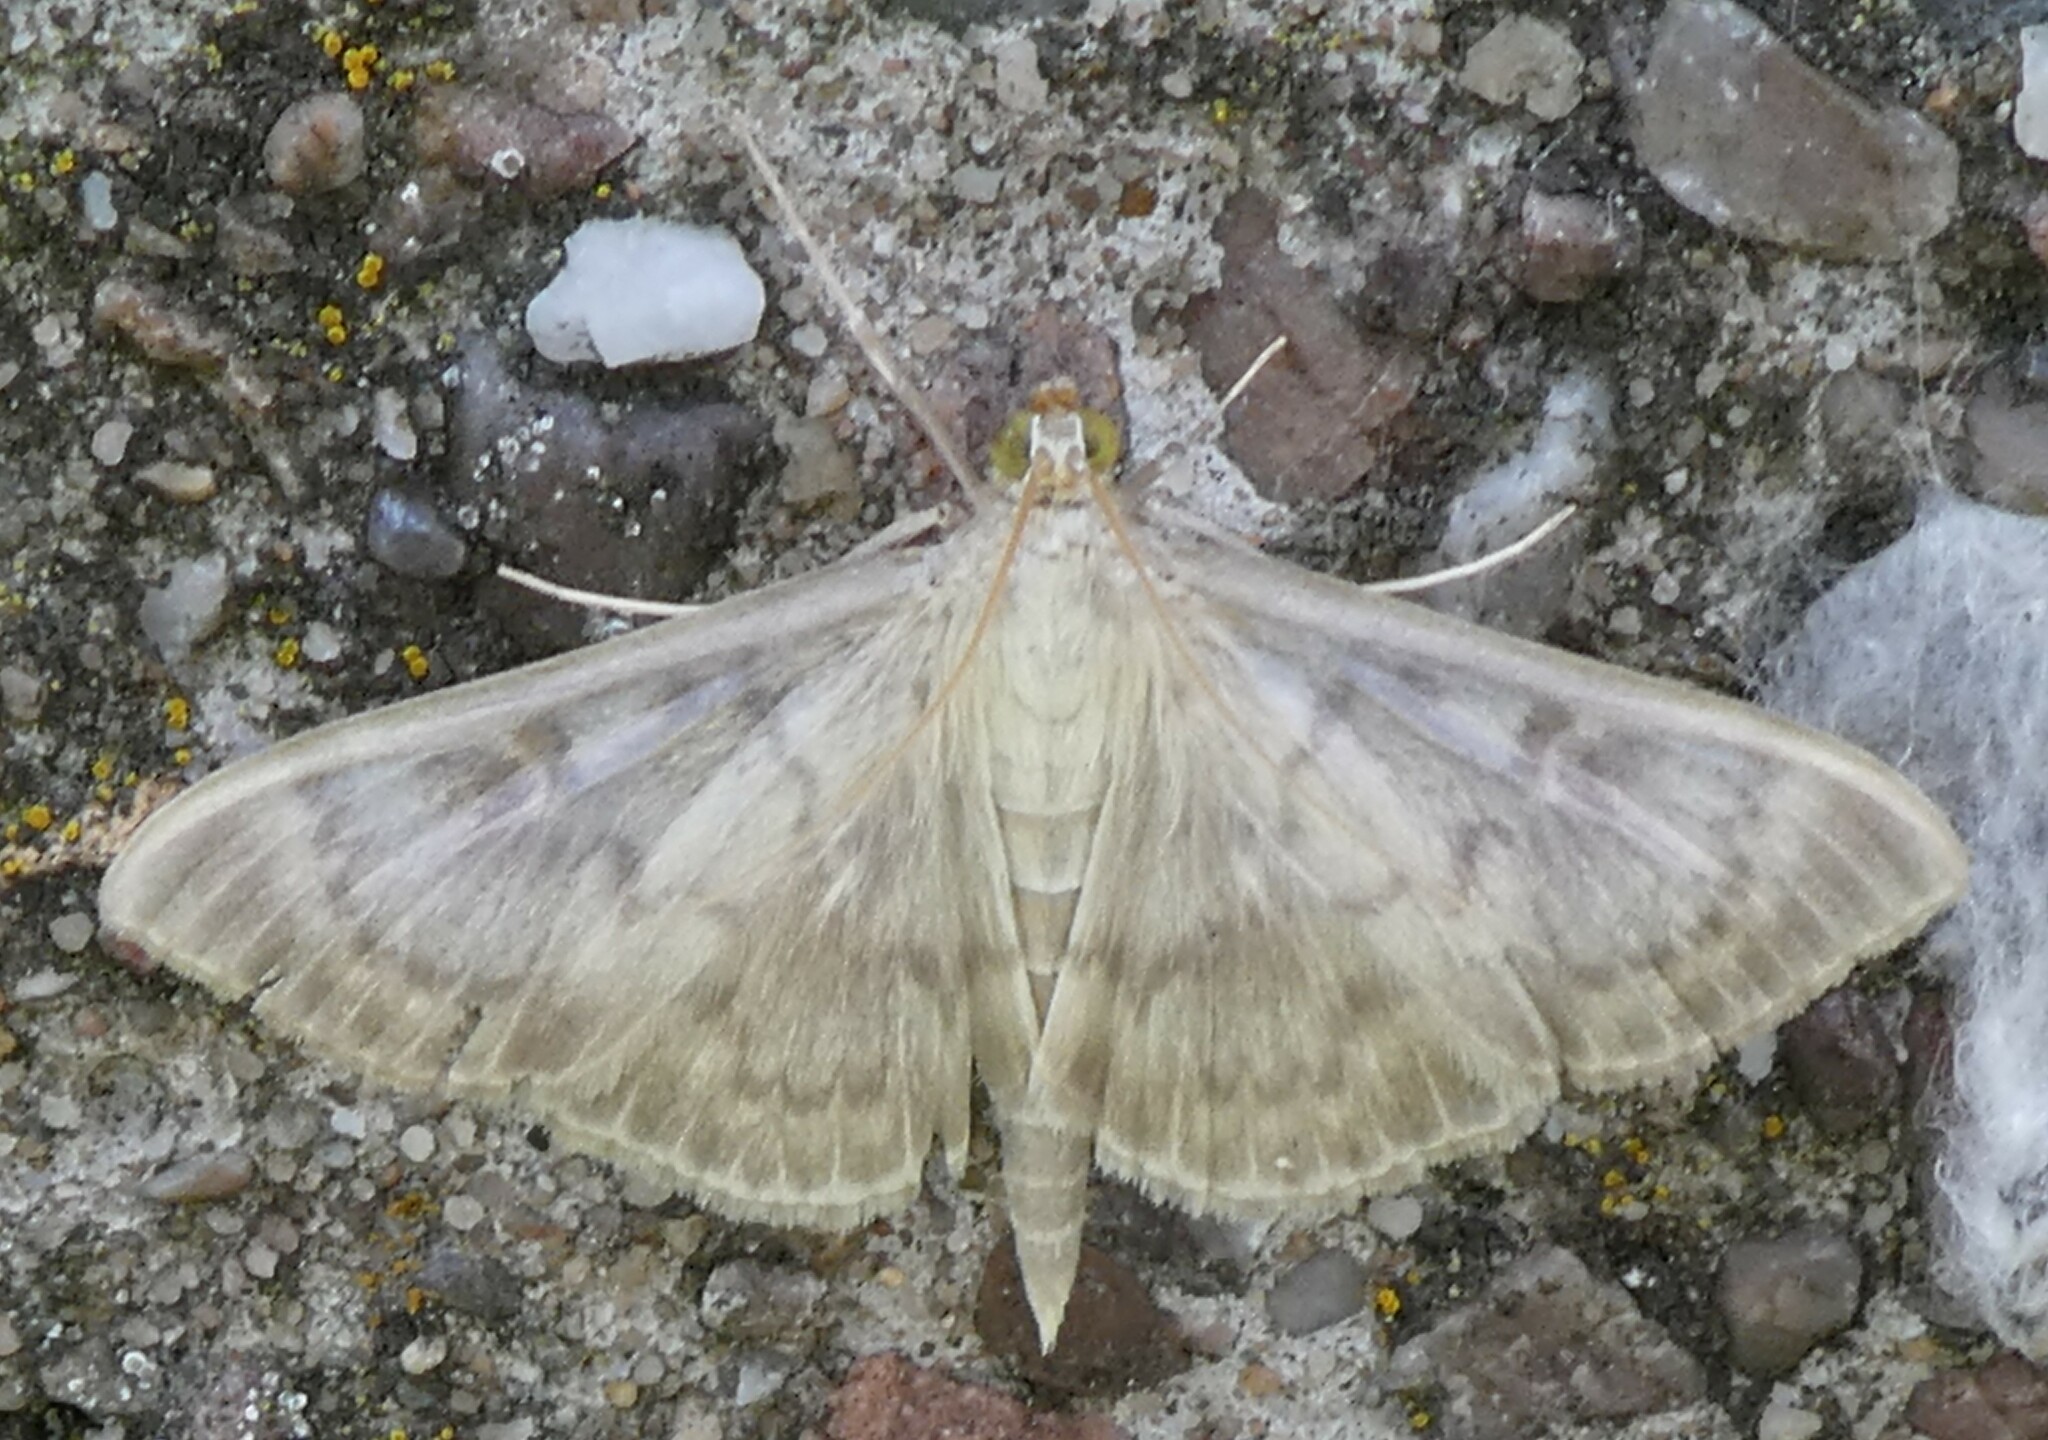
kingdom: Animalia
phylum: Arthropoda
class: Insecta
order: Lepidoptera
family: Crambidae
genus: Patania
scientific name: Patania ruralis
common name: Mother of pearl
